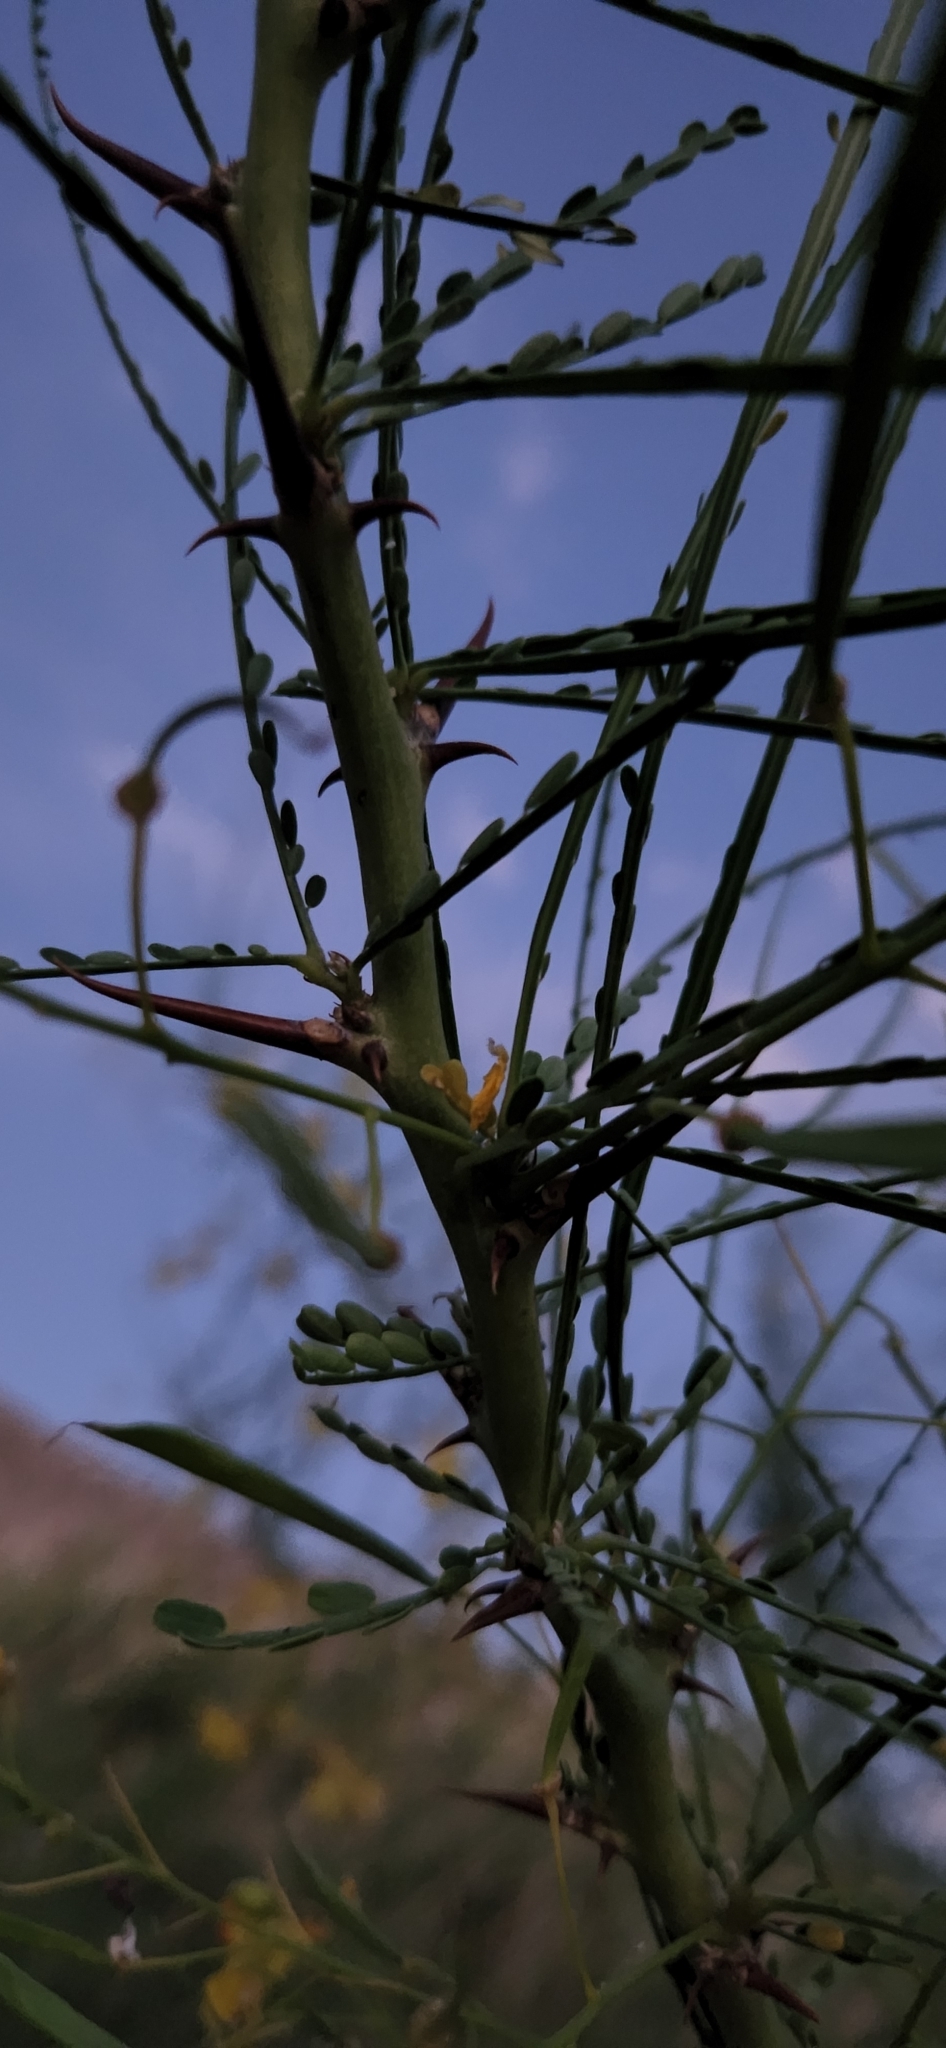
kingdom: Plantae
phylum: Tracheophyta
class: Magnoliopsida
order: Fabales
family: Fabaceae
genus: Parkinsonia
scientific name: Parkinsonia aculeata
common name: Jerusalem thorn
